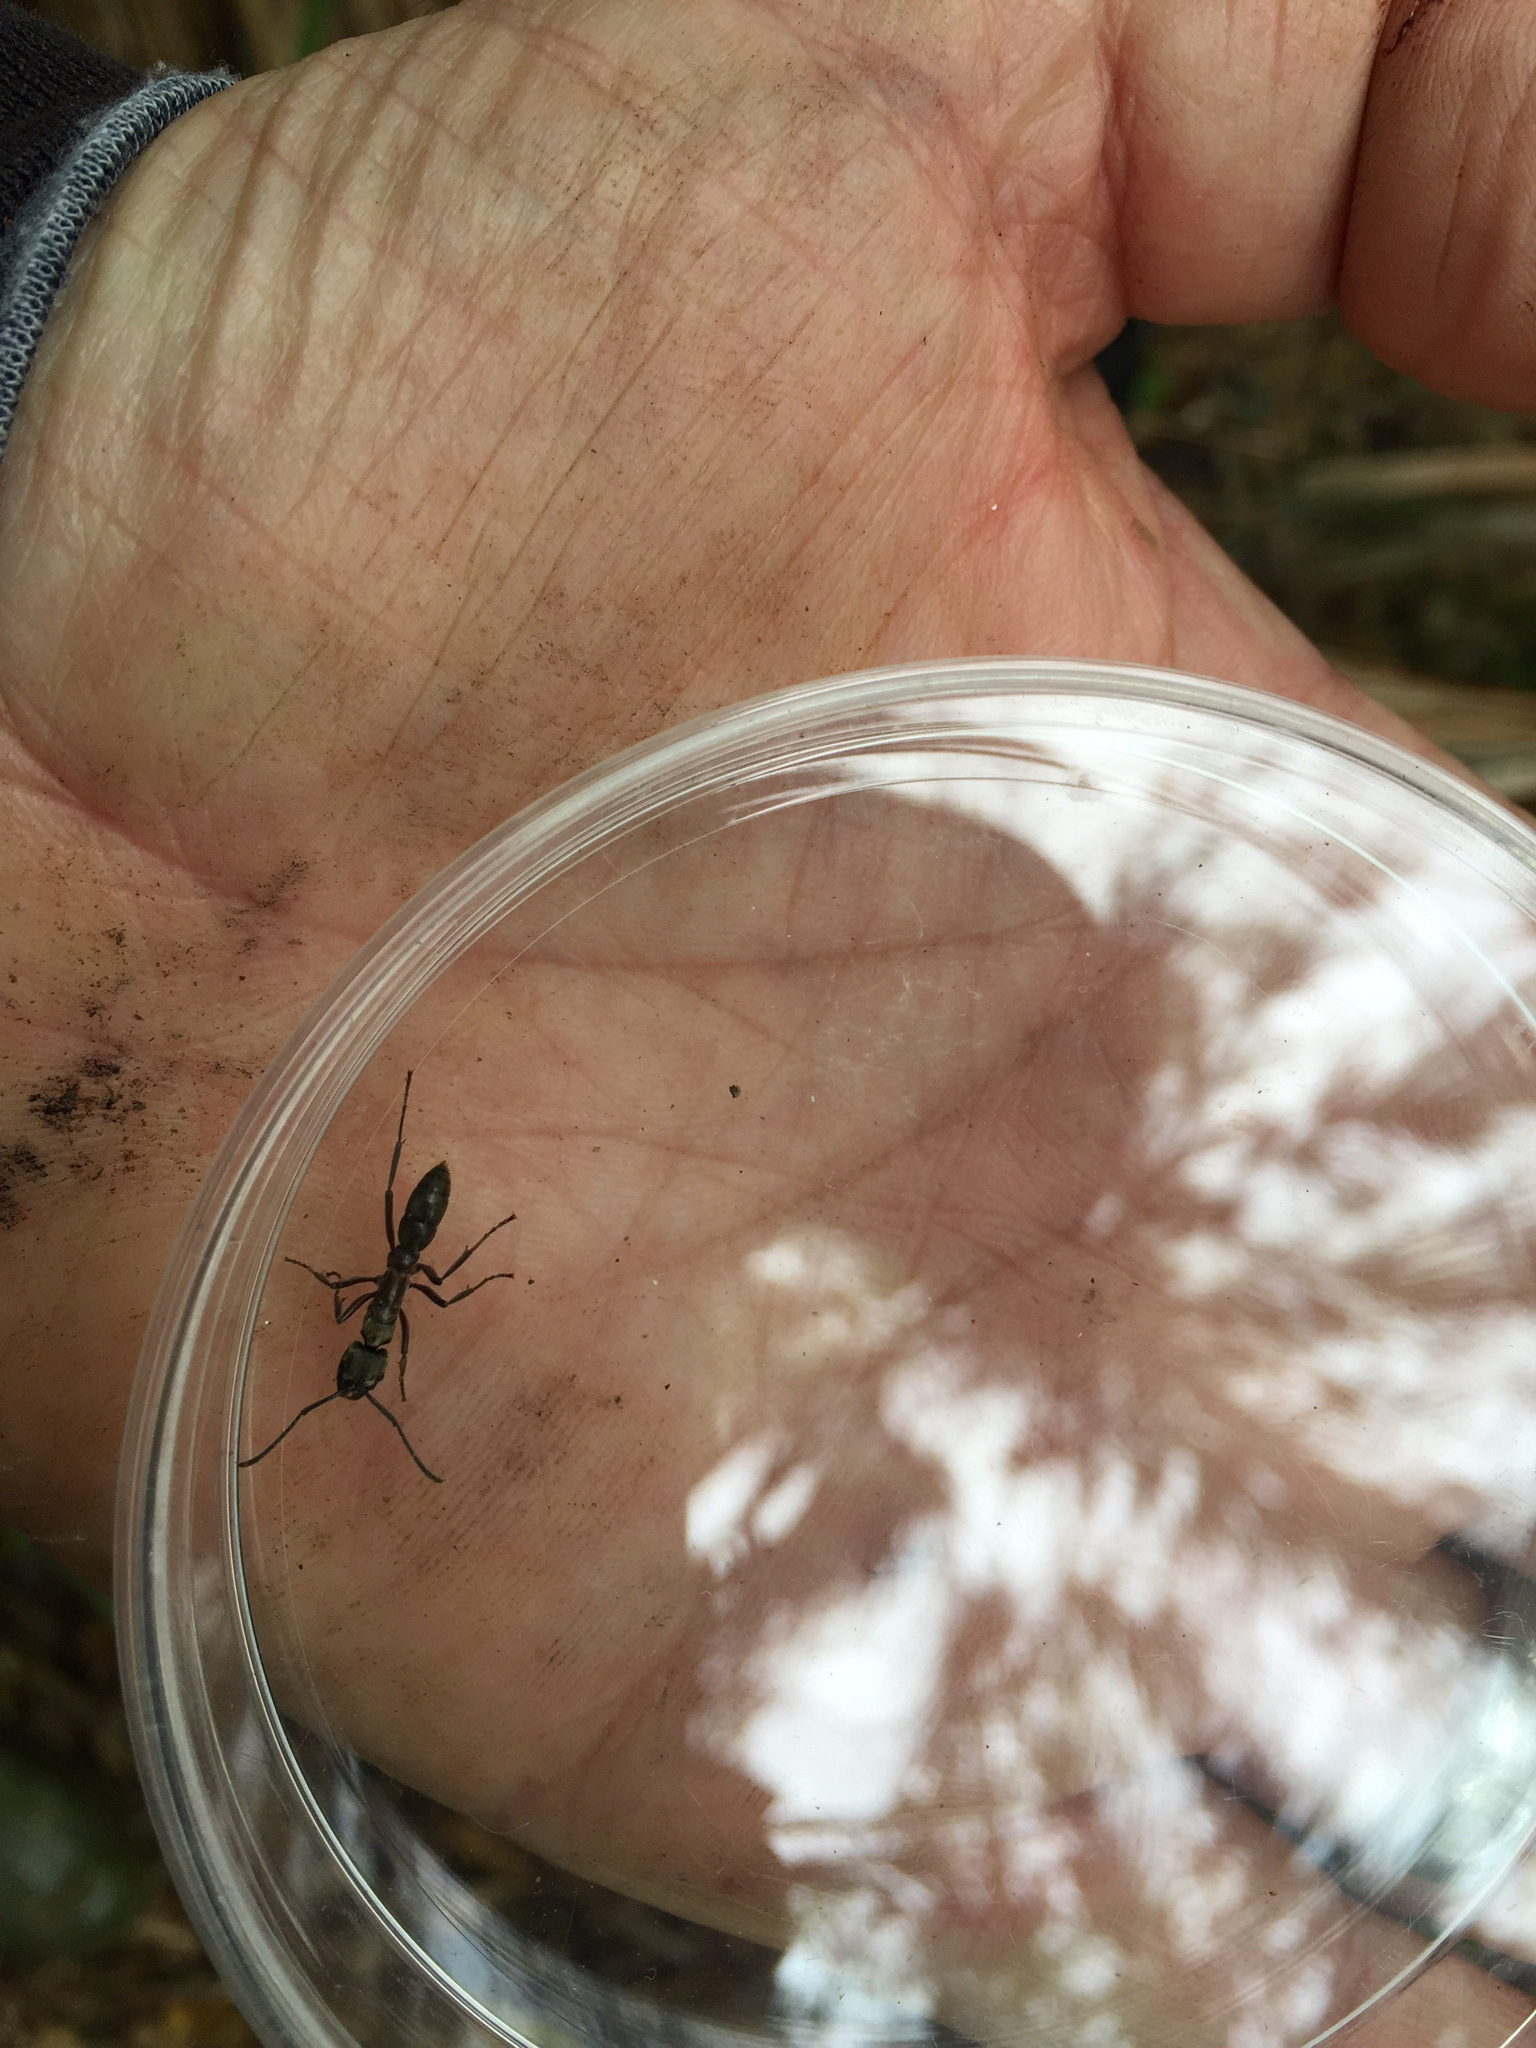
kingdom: Animalia
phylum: Arthropoda
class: Insecta
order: Hymenoptera
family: Formicidae
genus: Pachycondyla
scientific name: Pachycondyla villosa
